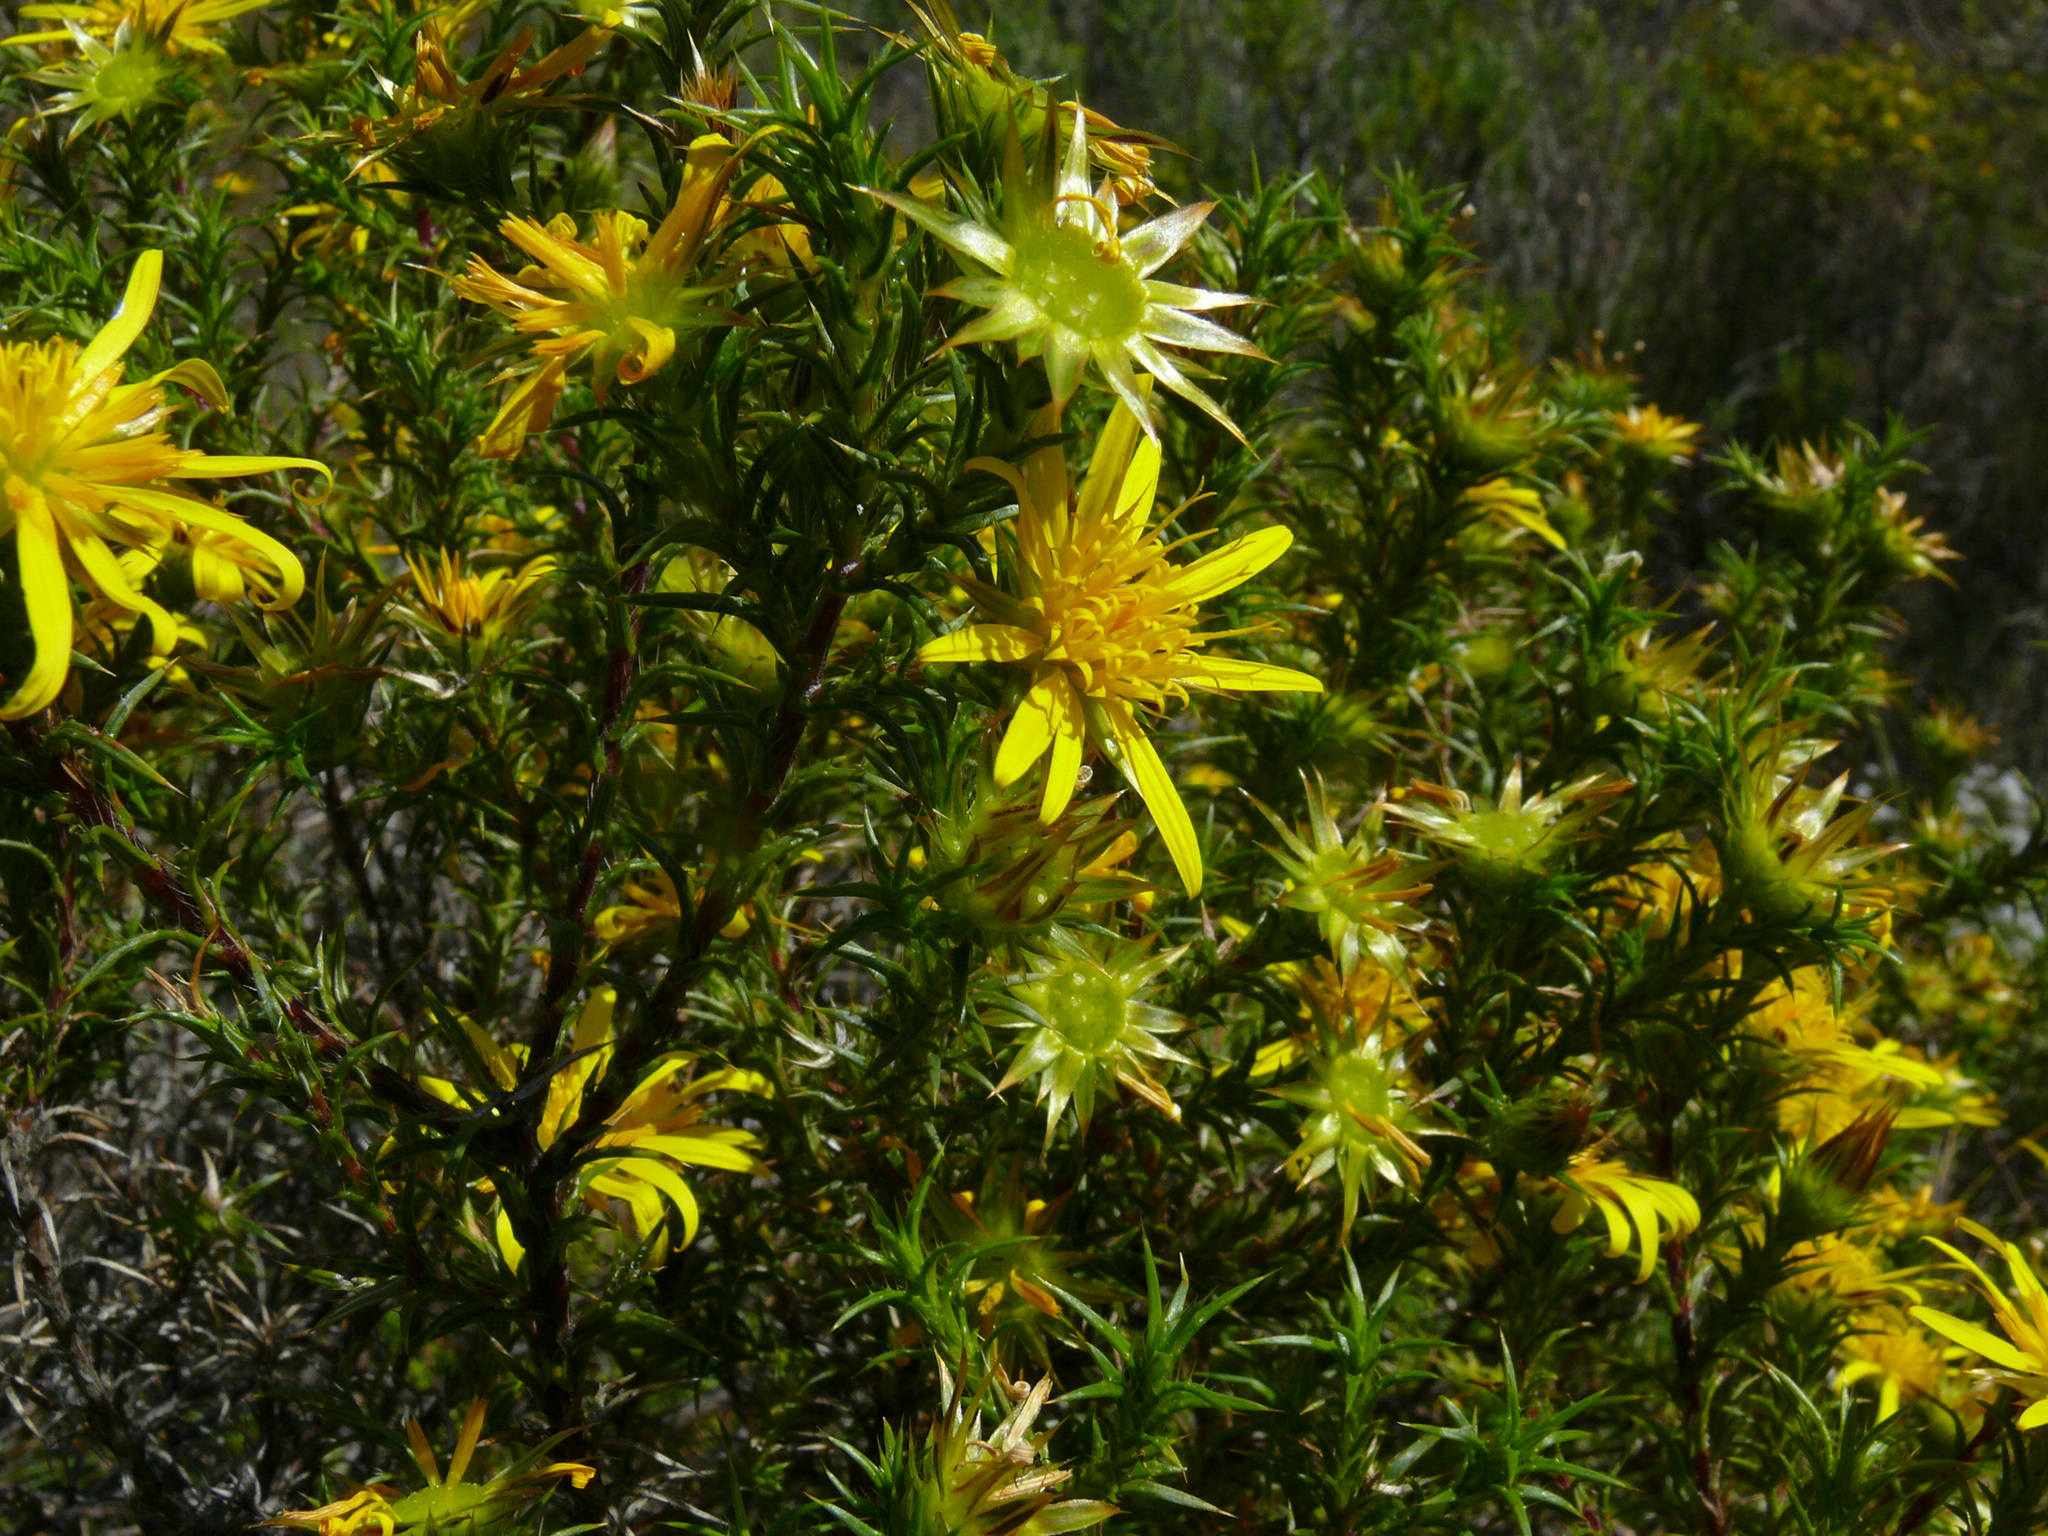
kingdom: Plantae
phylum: Tracheophyta
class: Magnoliopsida
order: Asterales
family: Asteraceae
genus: Cullumia
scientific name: Cullumia bisulca
